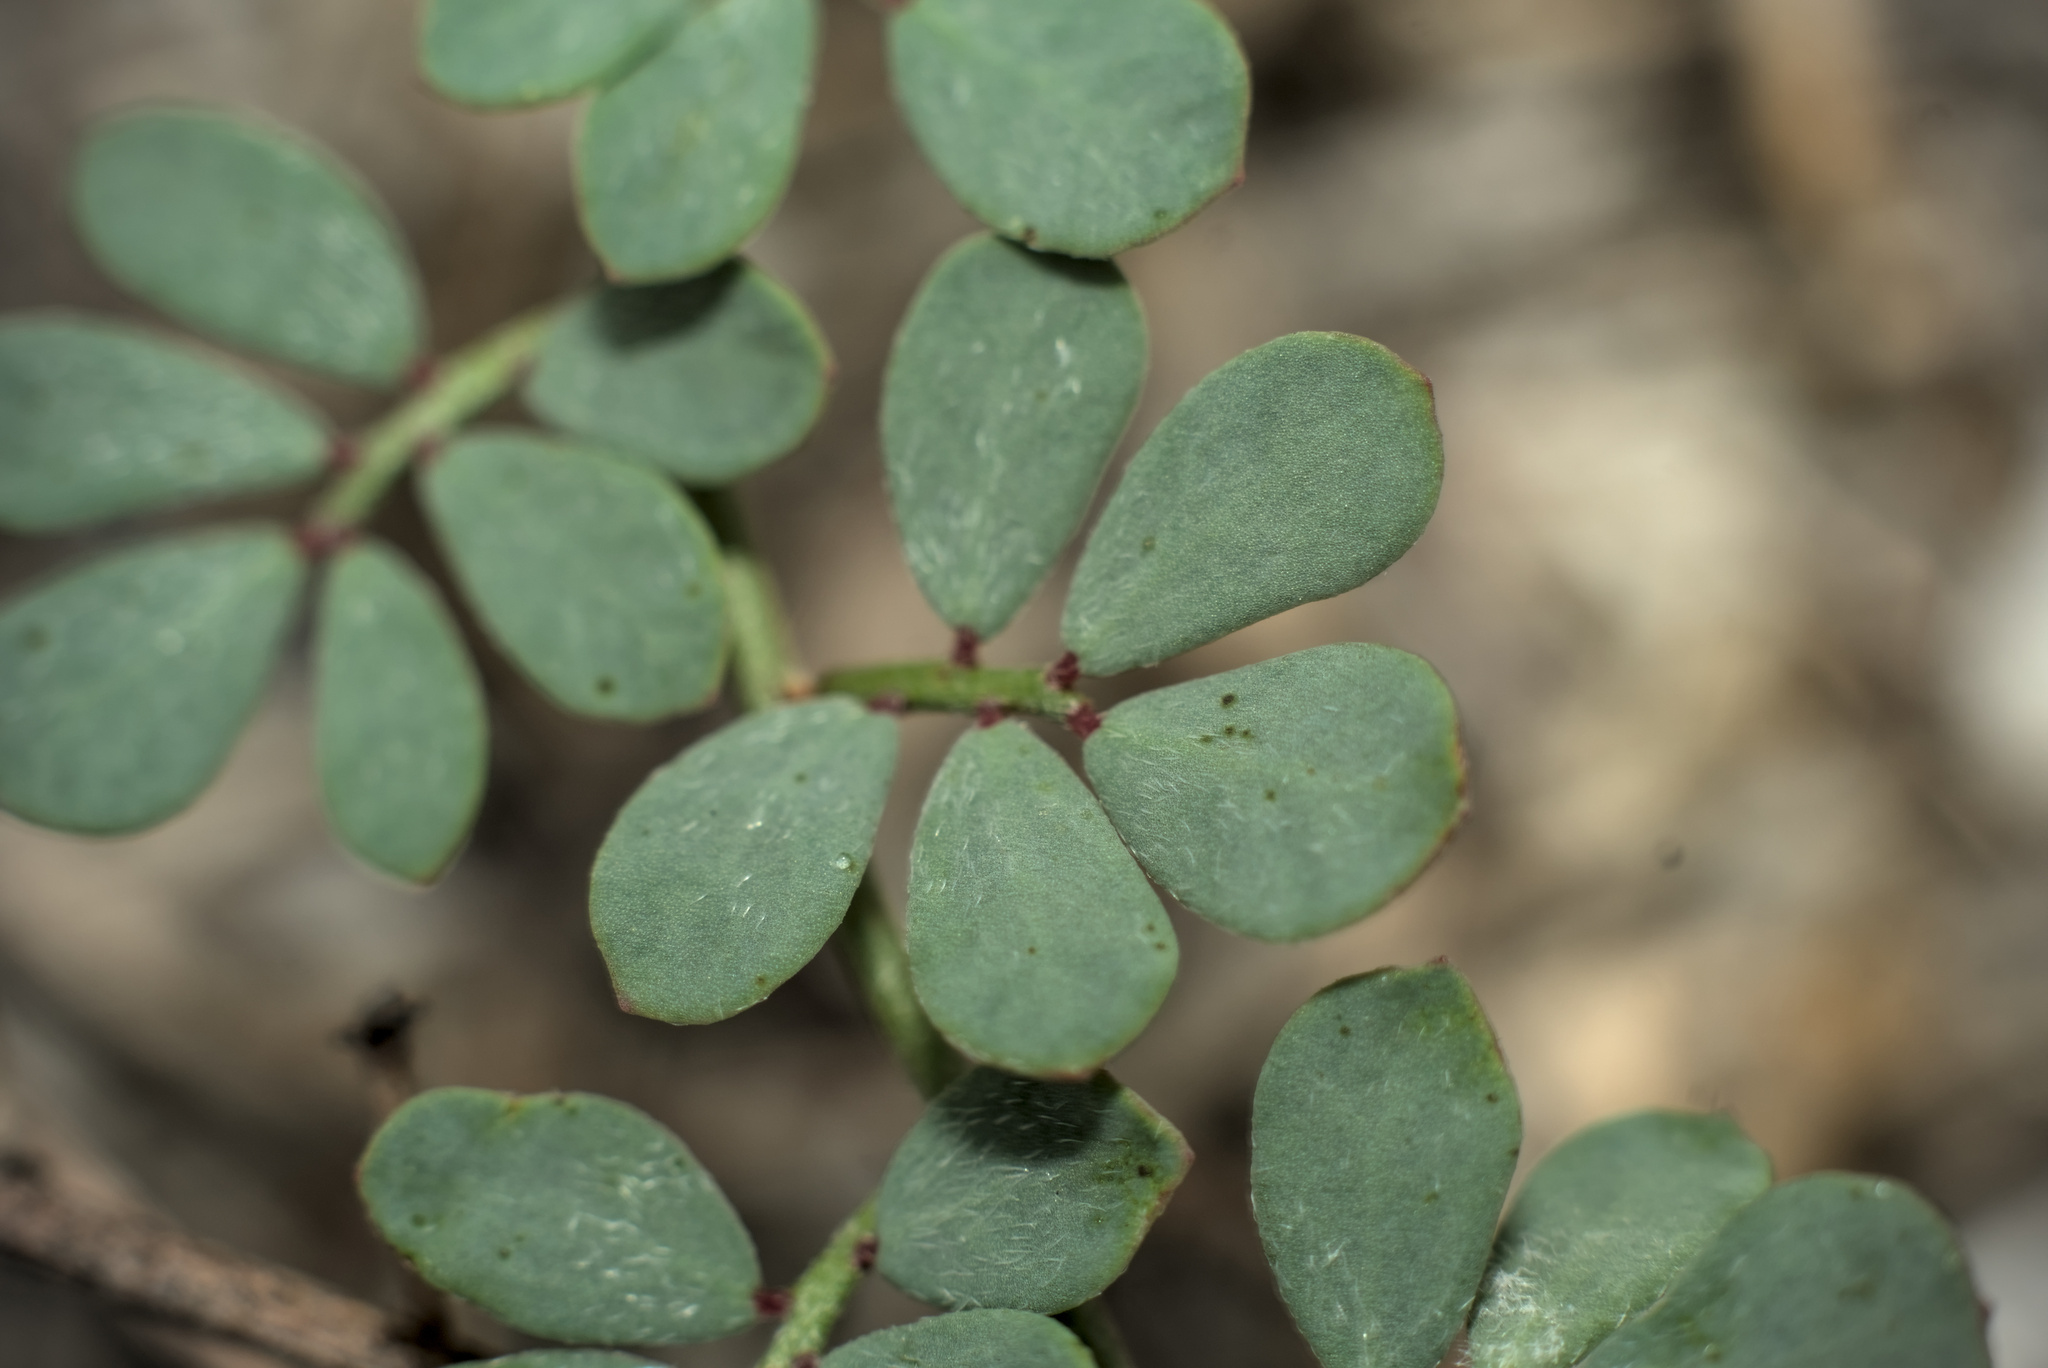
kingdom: Plantae
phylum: Tracheophyta
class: Magnoliopsida
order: Fabales
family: Fabaceae
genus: Acmispon
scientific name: Acmispon prostratus
